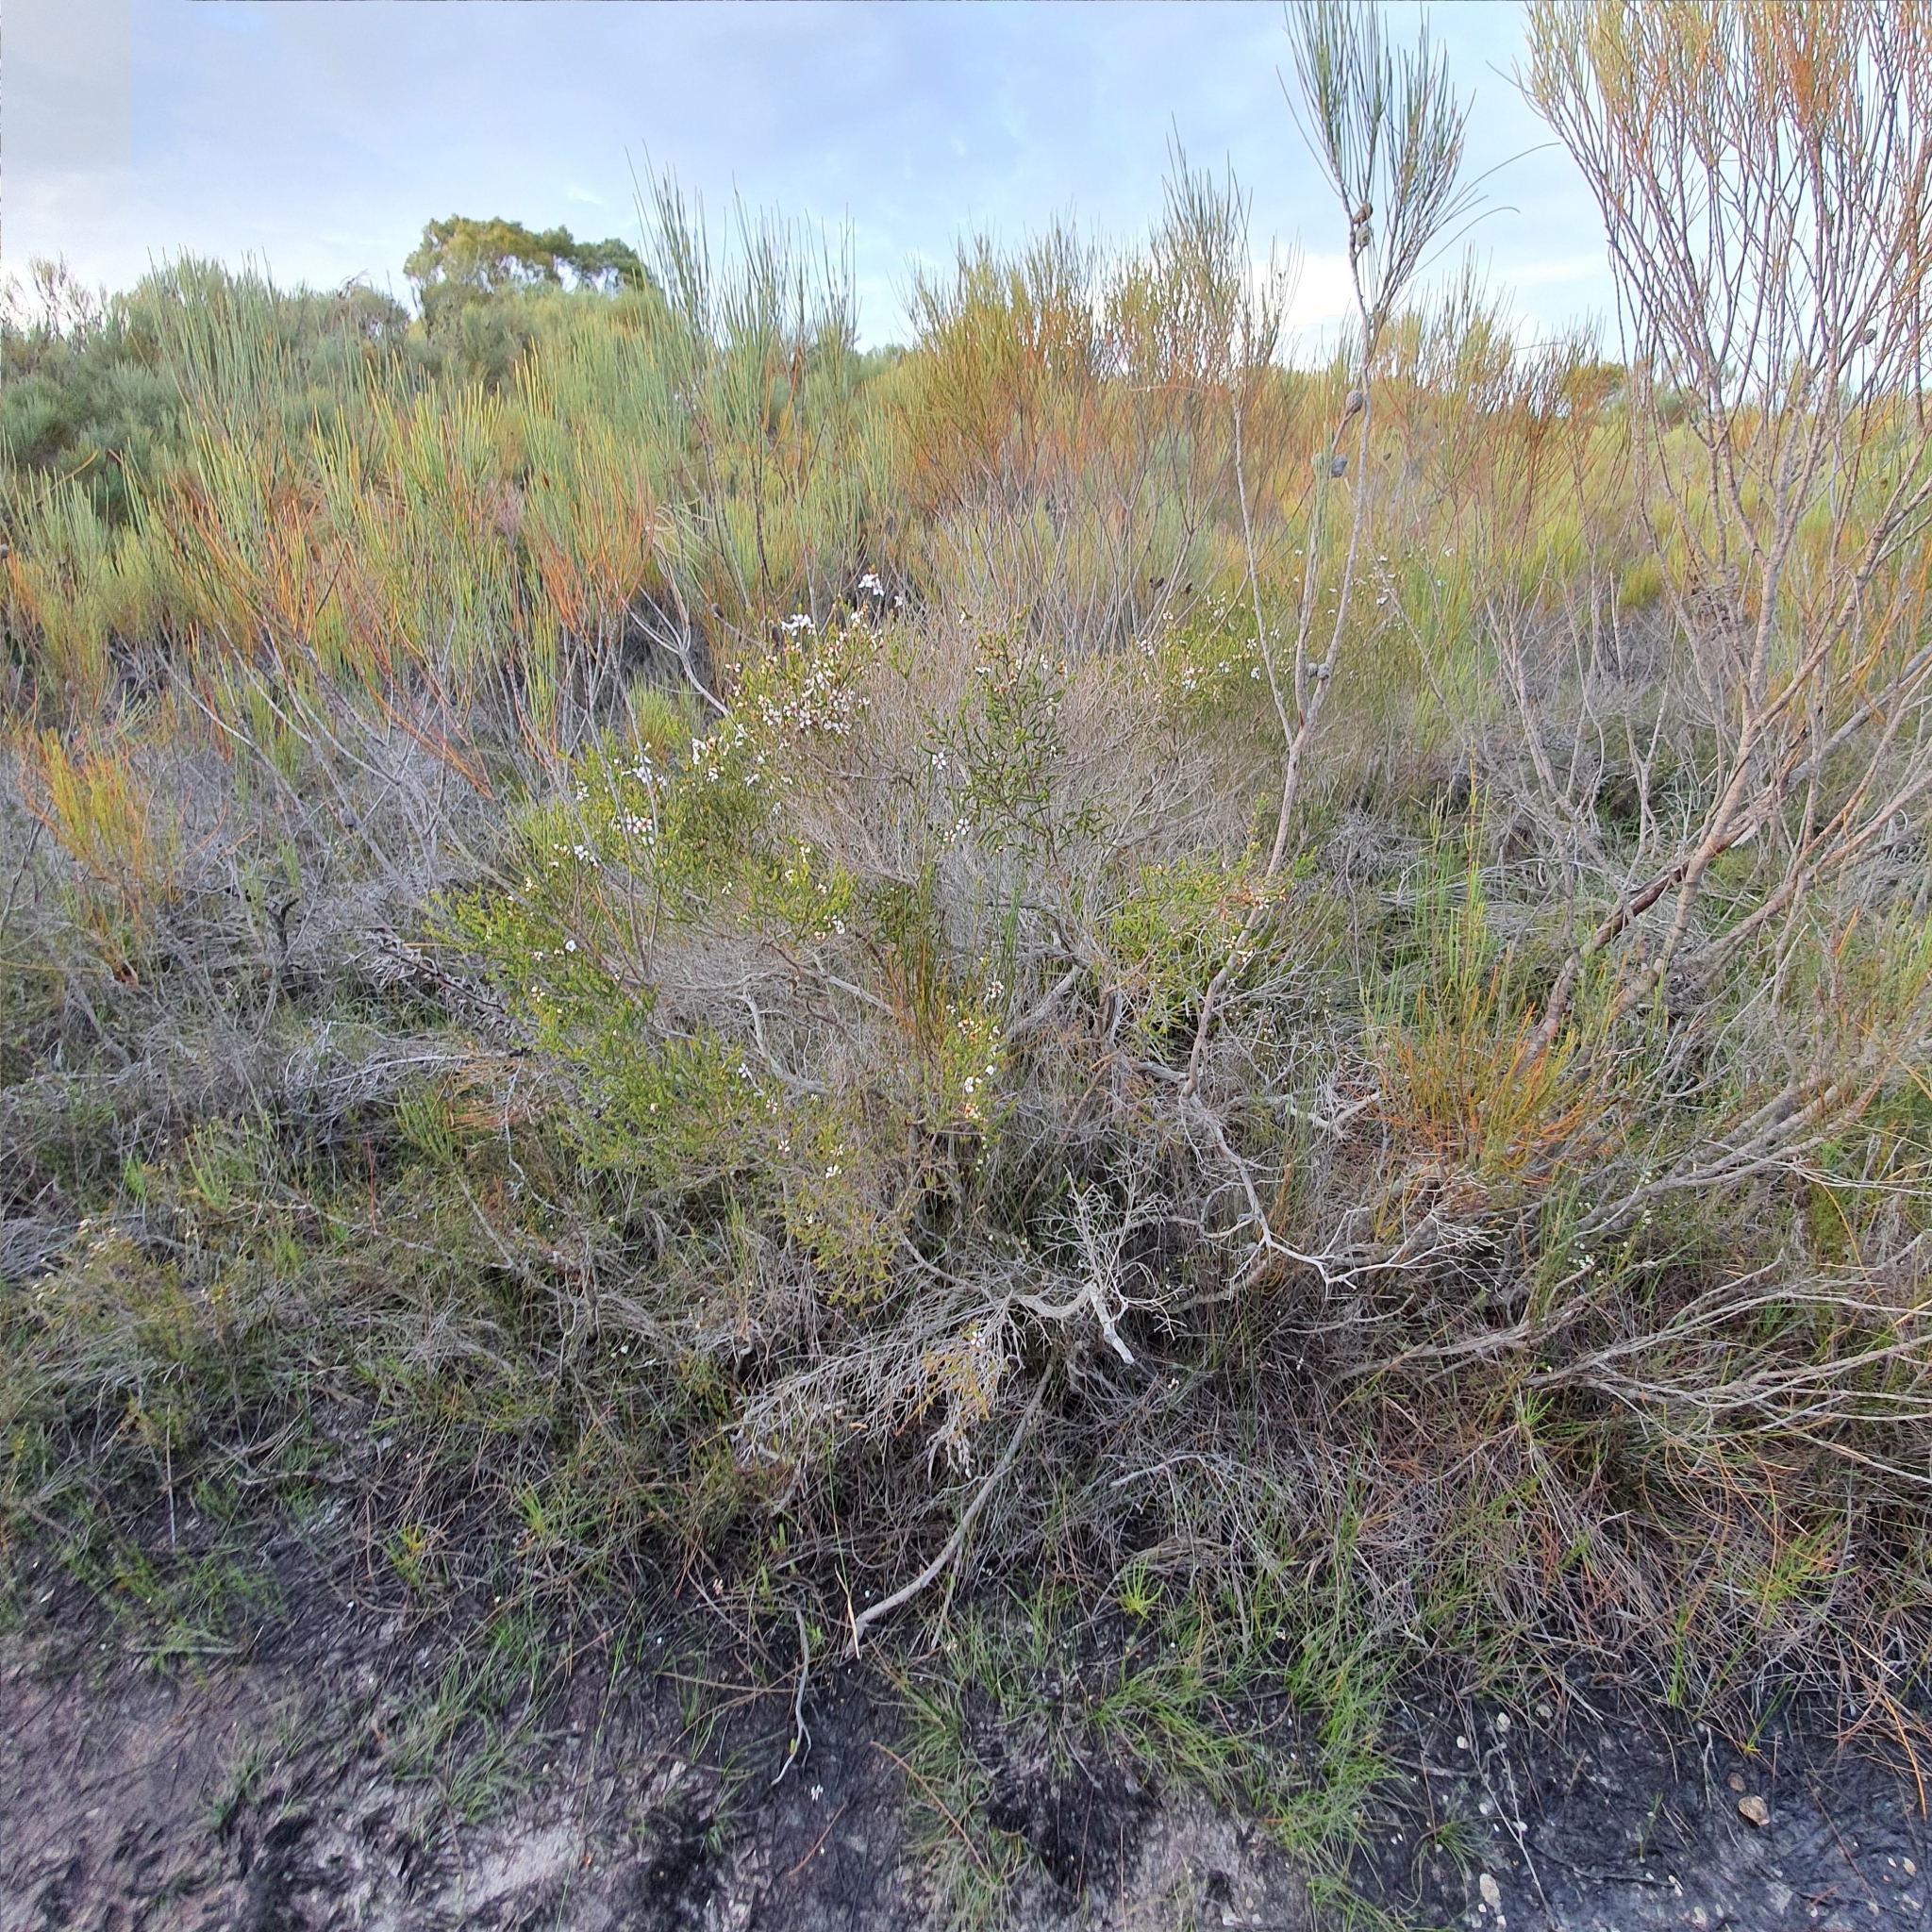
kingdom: Plantae
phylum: Tracheophyta
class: Magnoliopsida
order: Myrtales
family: Myrtaceae
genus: Leptospermum
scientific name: Leptospermum epacridoideum
